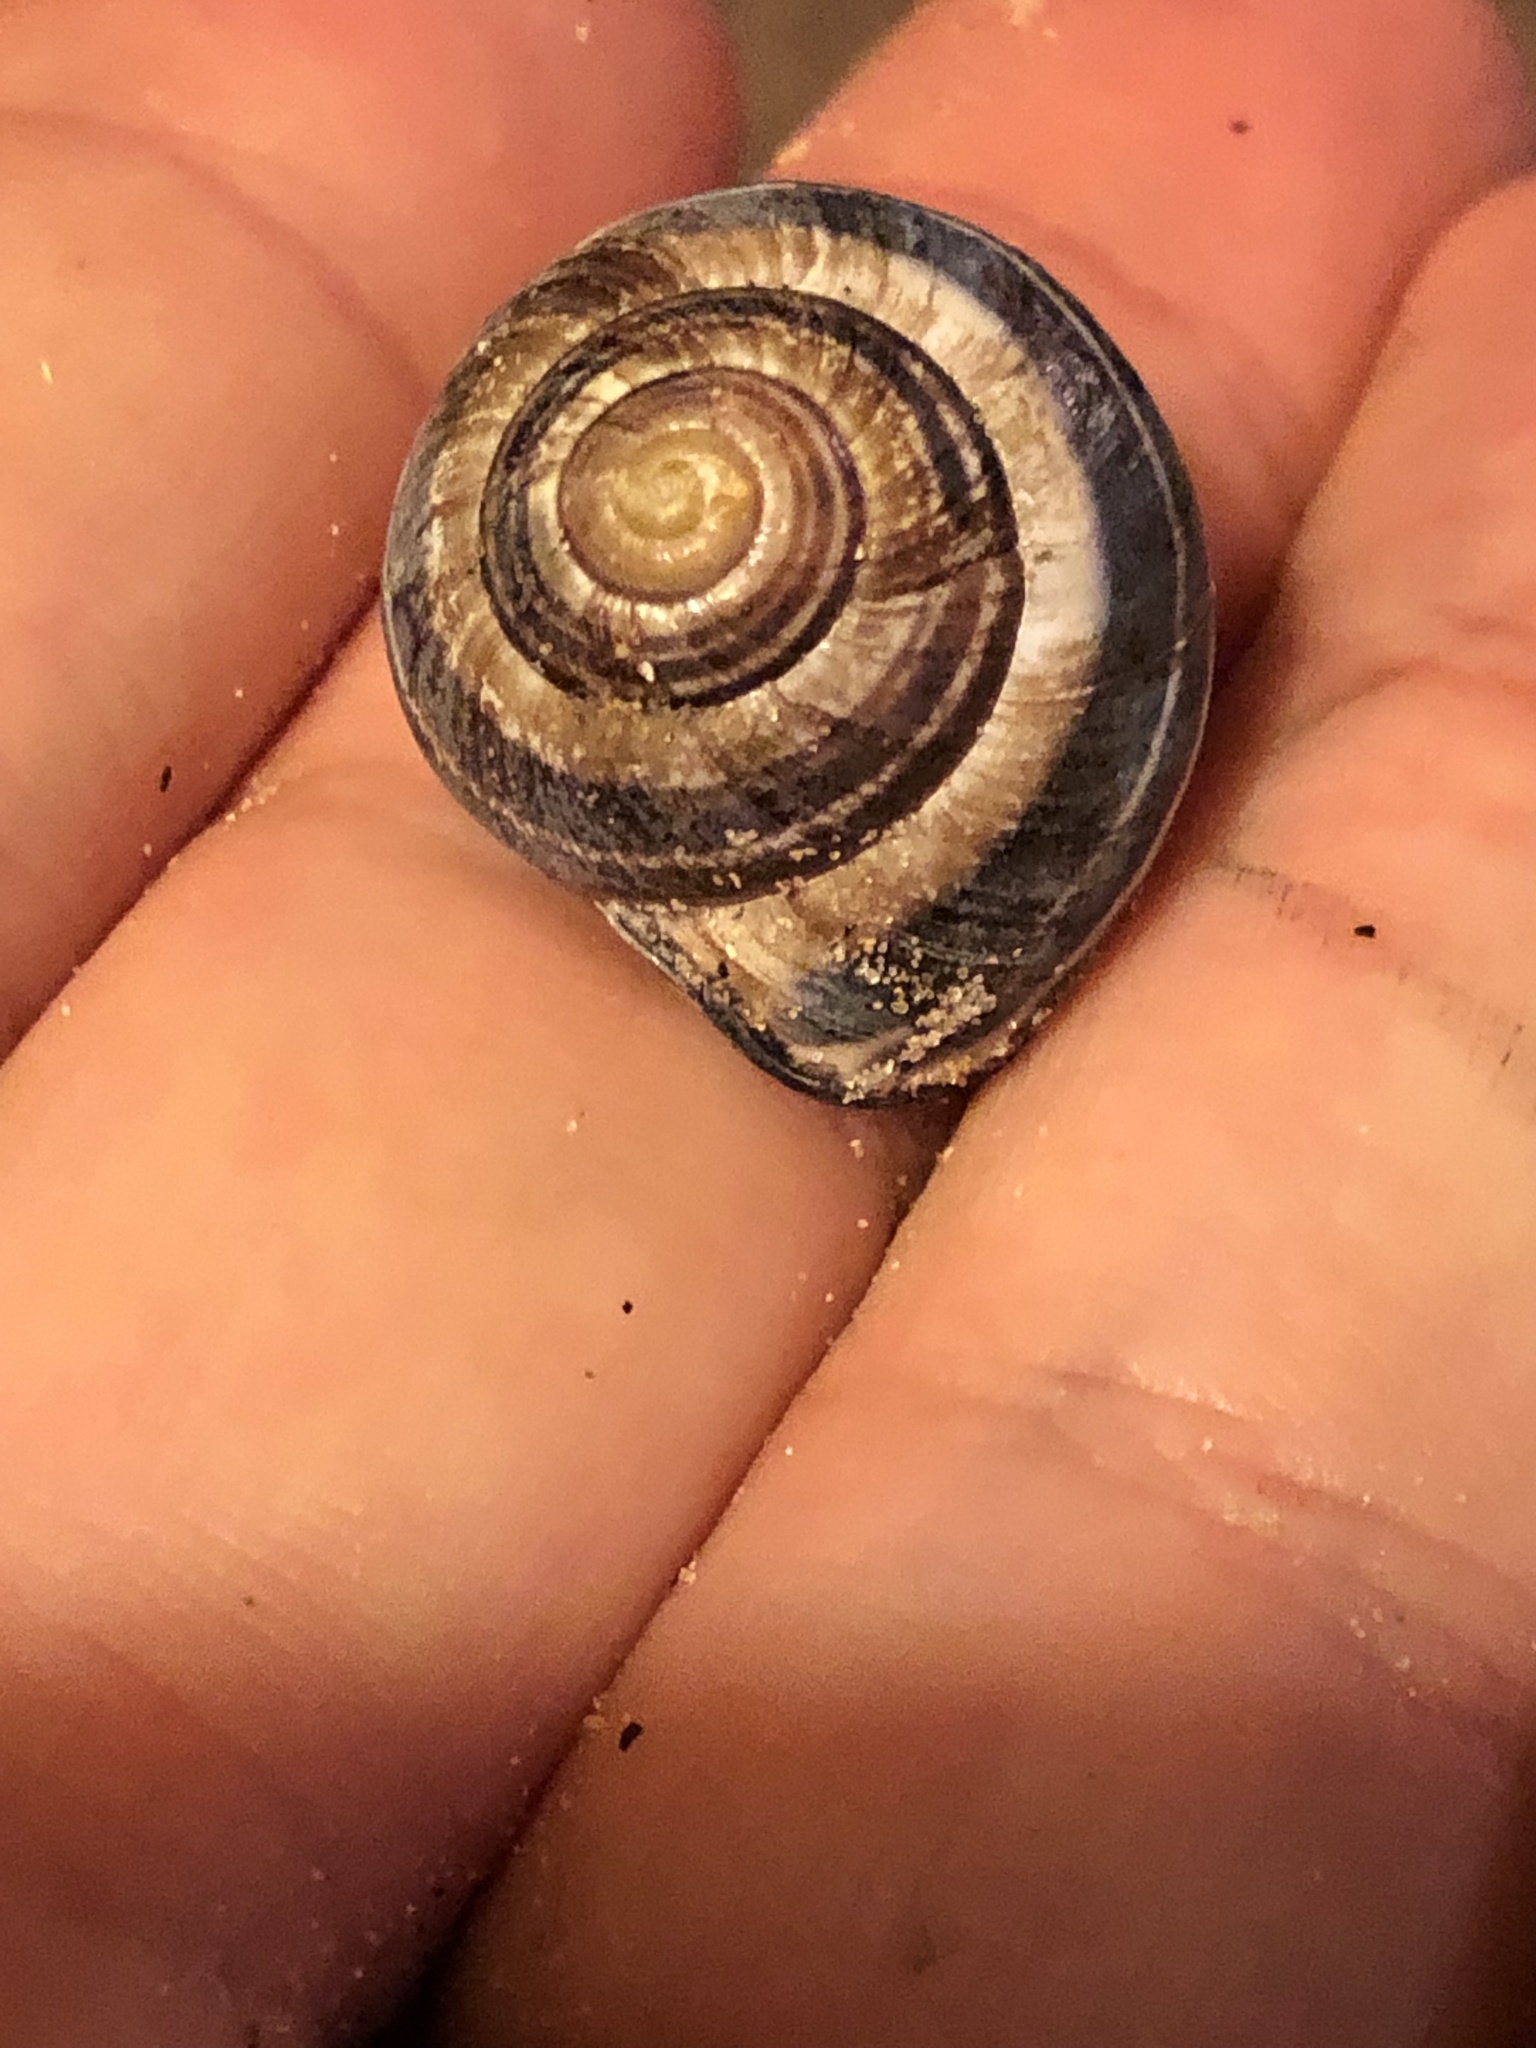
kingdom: Animalia
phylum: Mollusca
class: Gastropoda
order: Stylommatophora
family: Helicidae
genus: Cepaea
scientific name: Cepaea nemoralis
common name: Grovesnail
